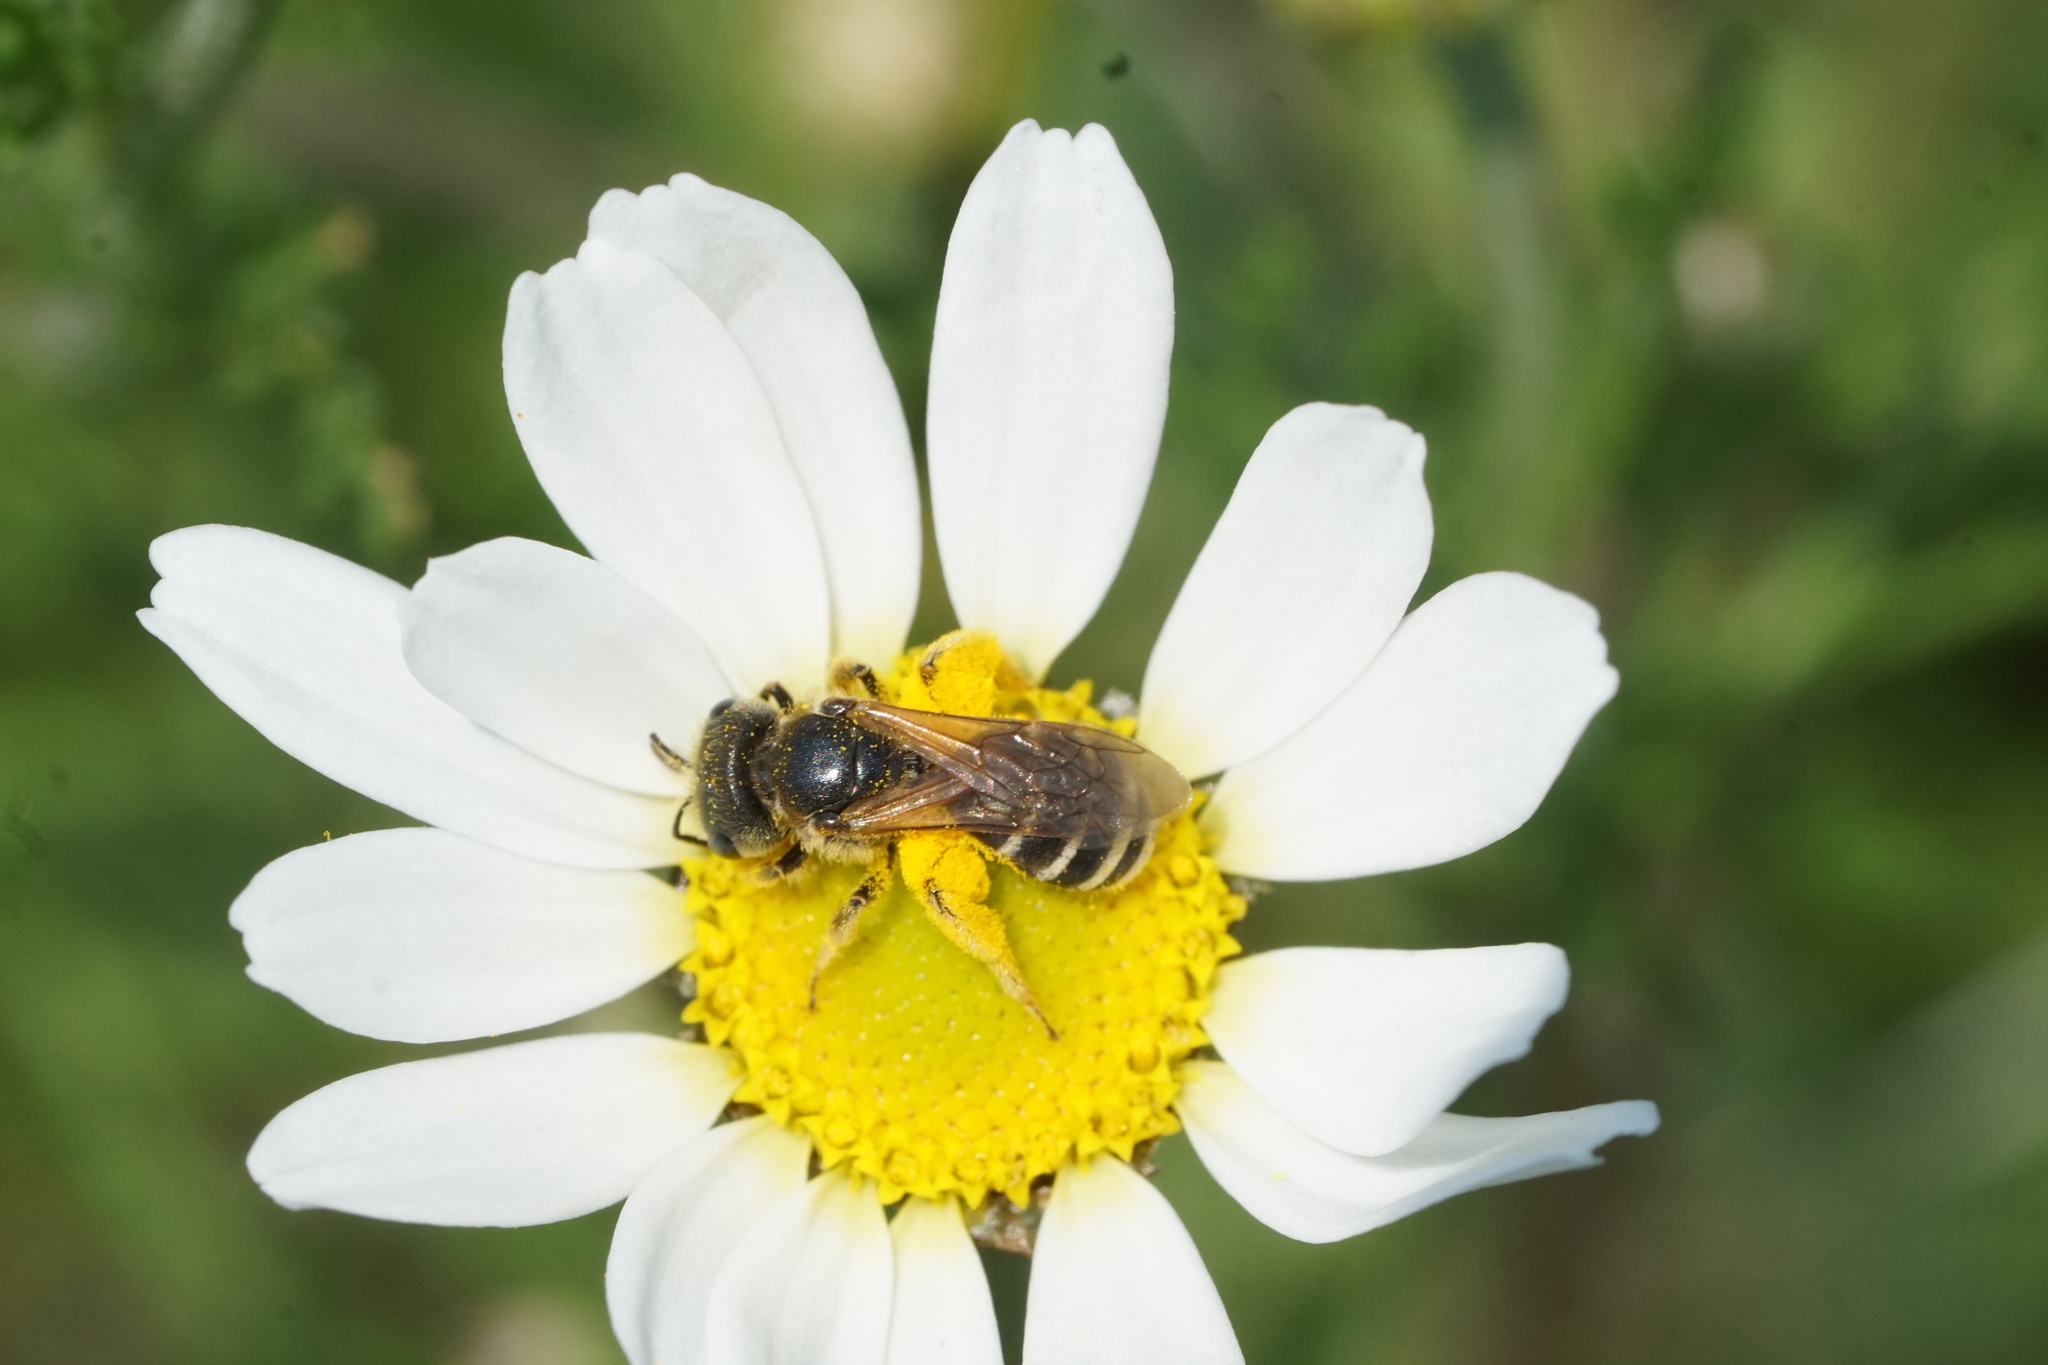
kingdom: Animalia
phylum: Arthropoda
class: Insecta
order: Hymenoptera
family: Halictidae
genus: Halictus
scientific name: Halictus ligatus
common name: Ligated furrow bee
